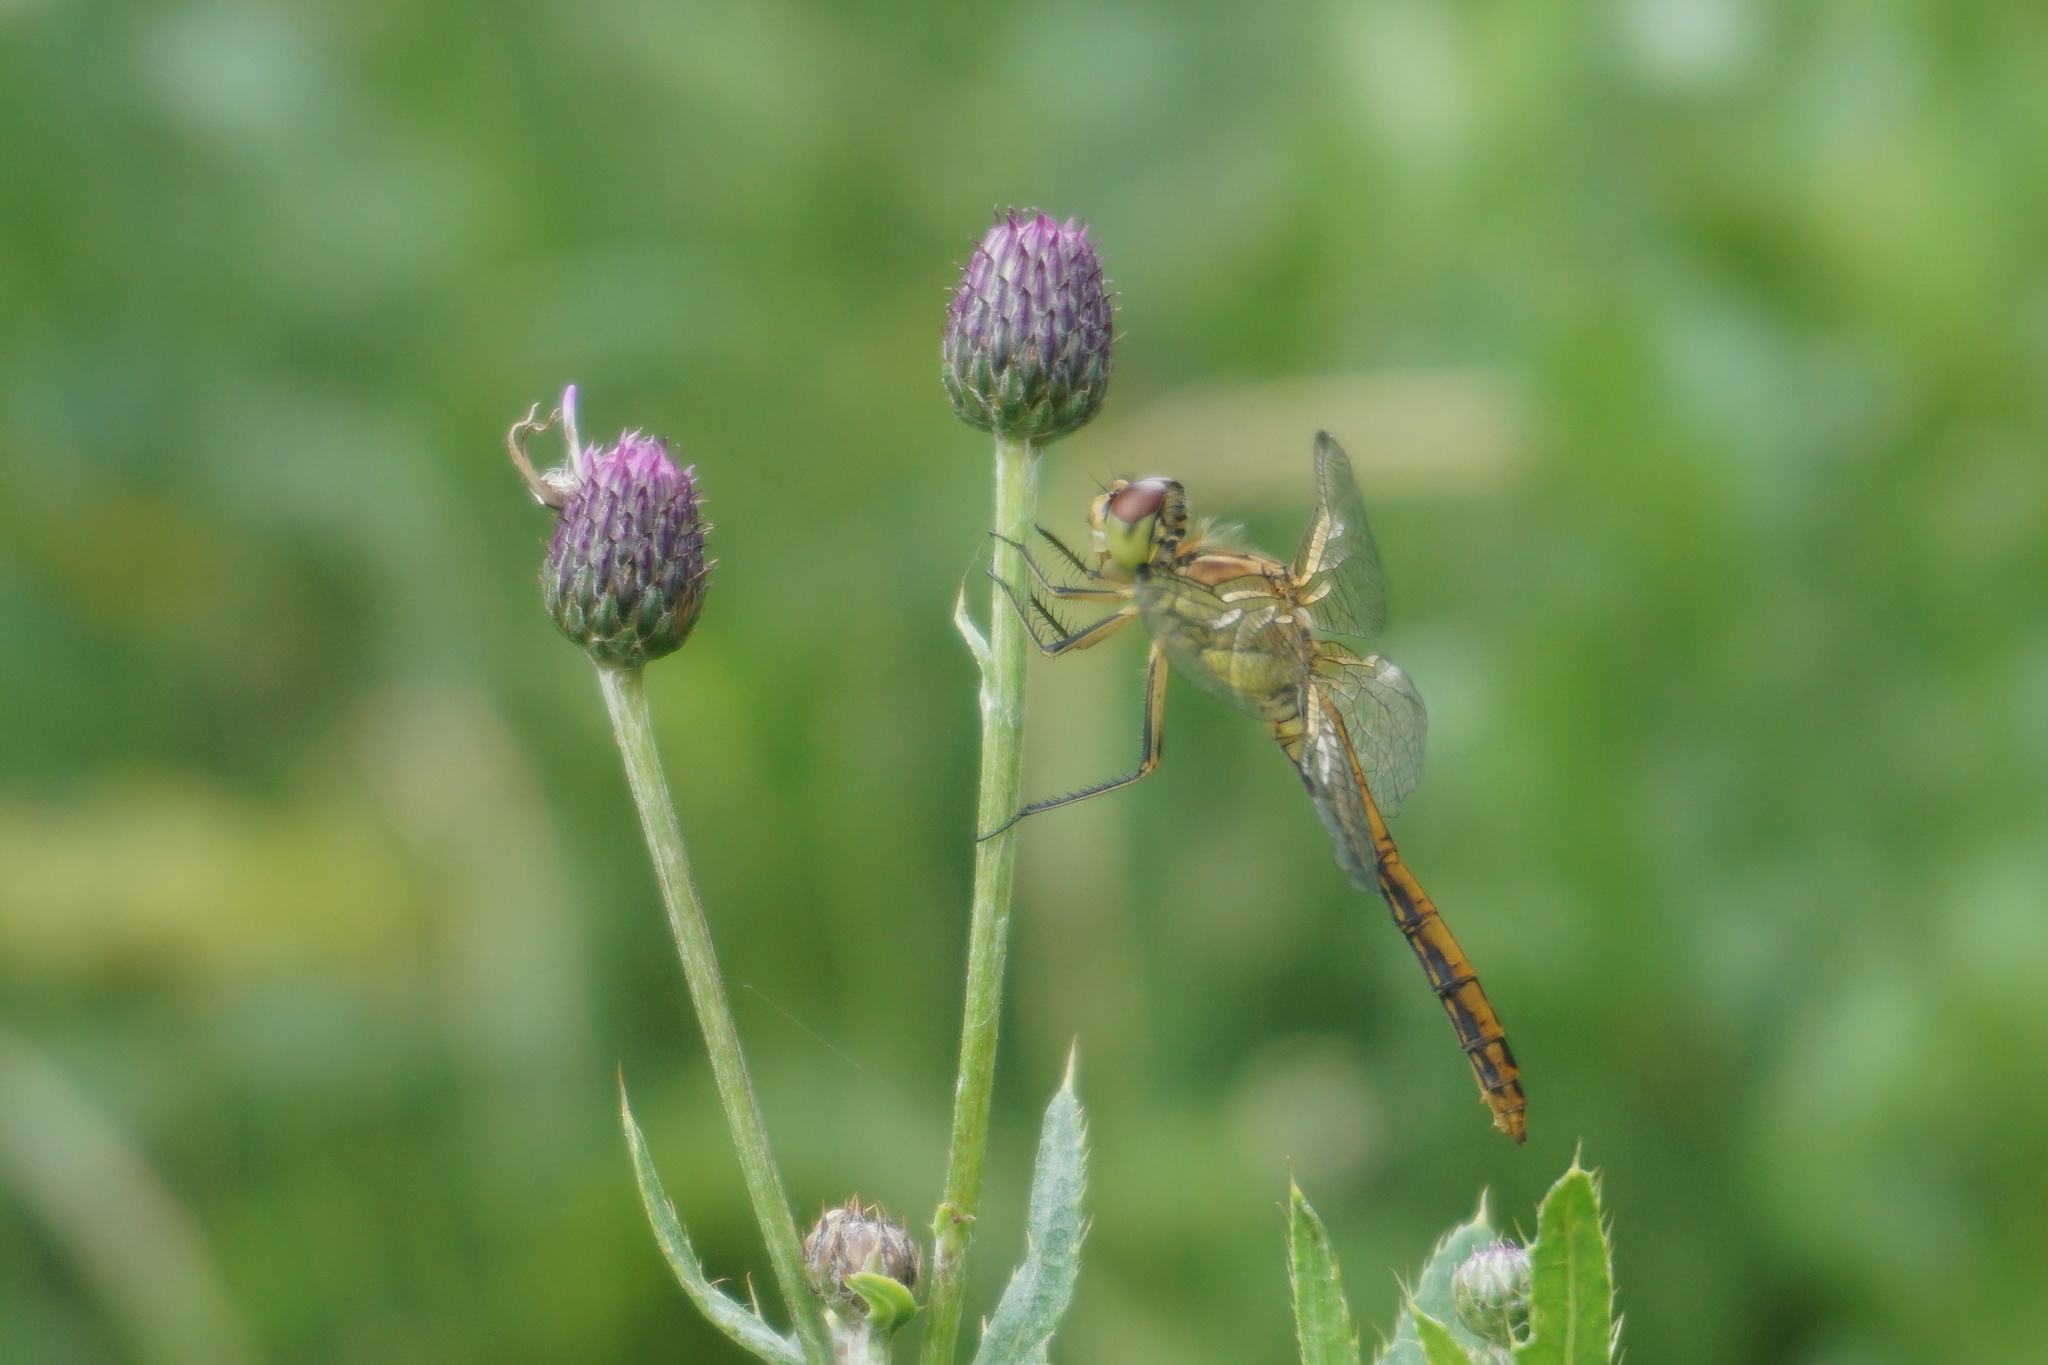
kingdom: Animalia
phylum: Arthropoda
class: Insecta
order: Odonata
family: Libellulidae
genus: Sympetrum
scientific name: Sympetrum vulgatum
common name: Vagrant darter
